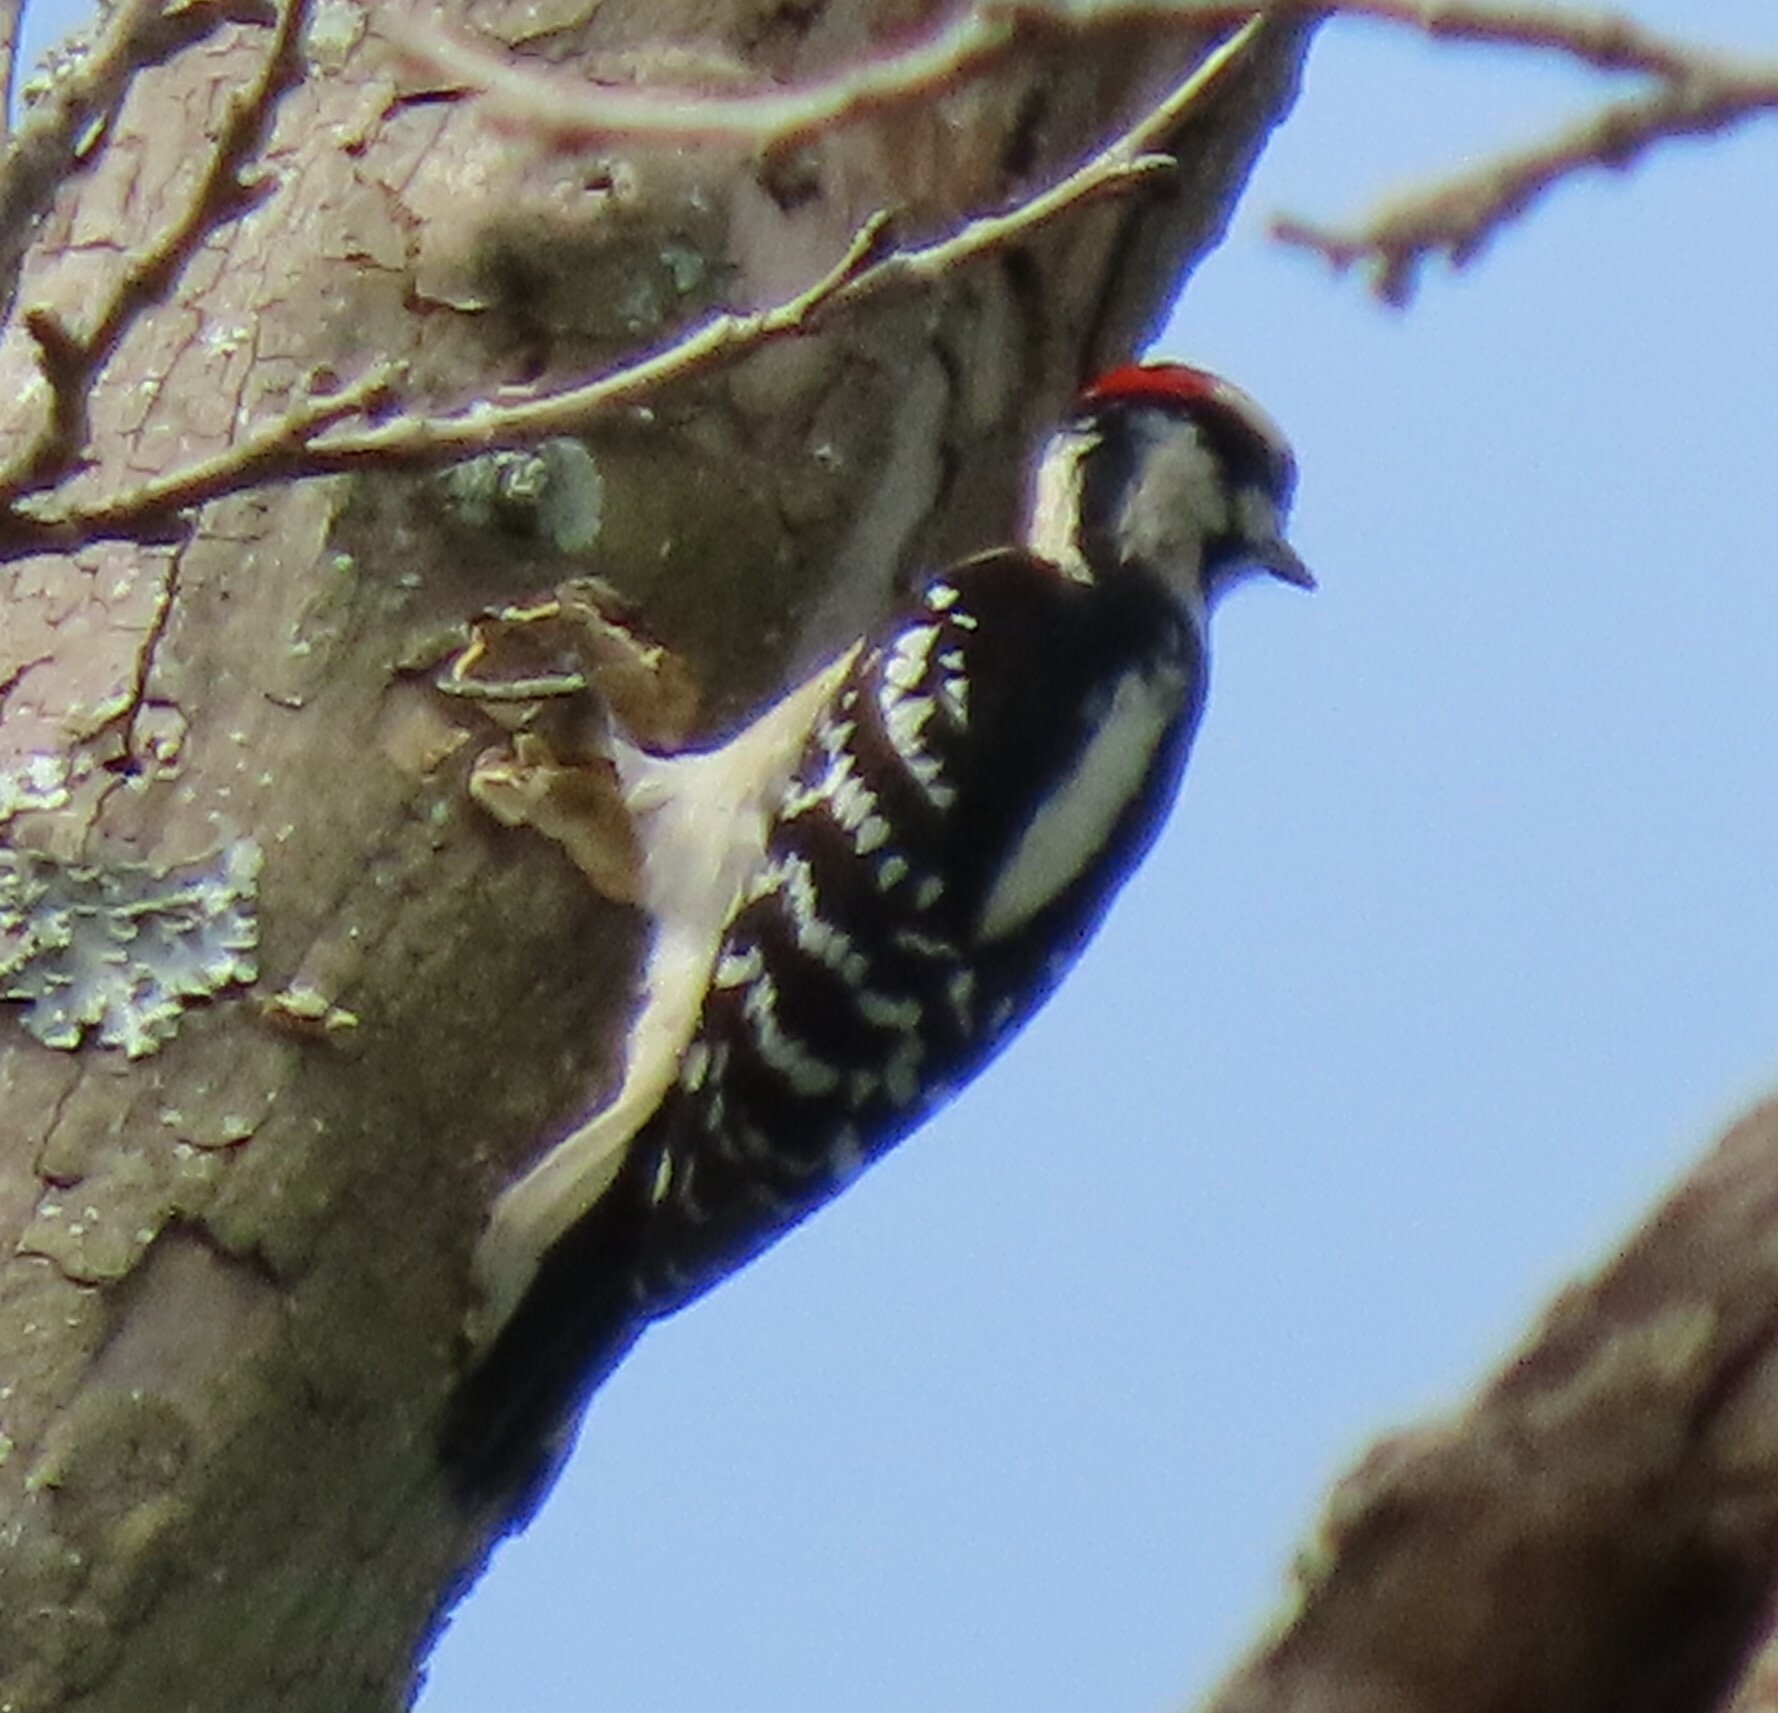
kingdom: Animalia
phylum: Chordata
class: Aves
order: Piciformes
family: Picidae
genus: Dryobates
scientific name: Dryobates pubescens
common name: Downy woodpecker
